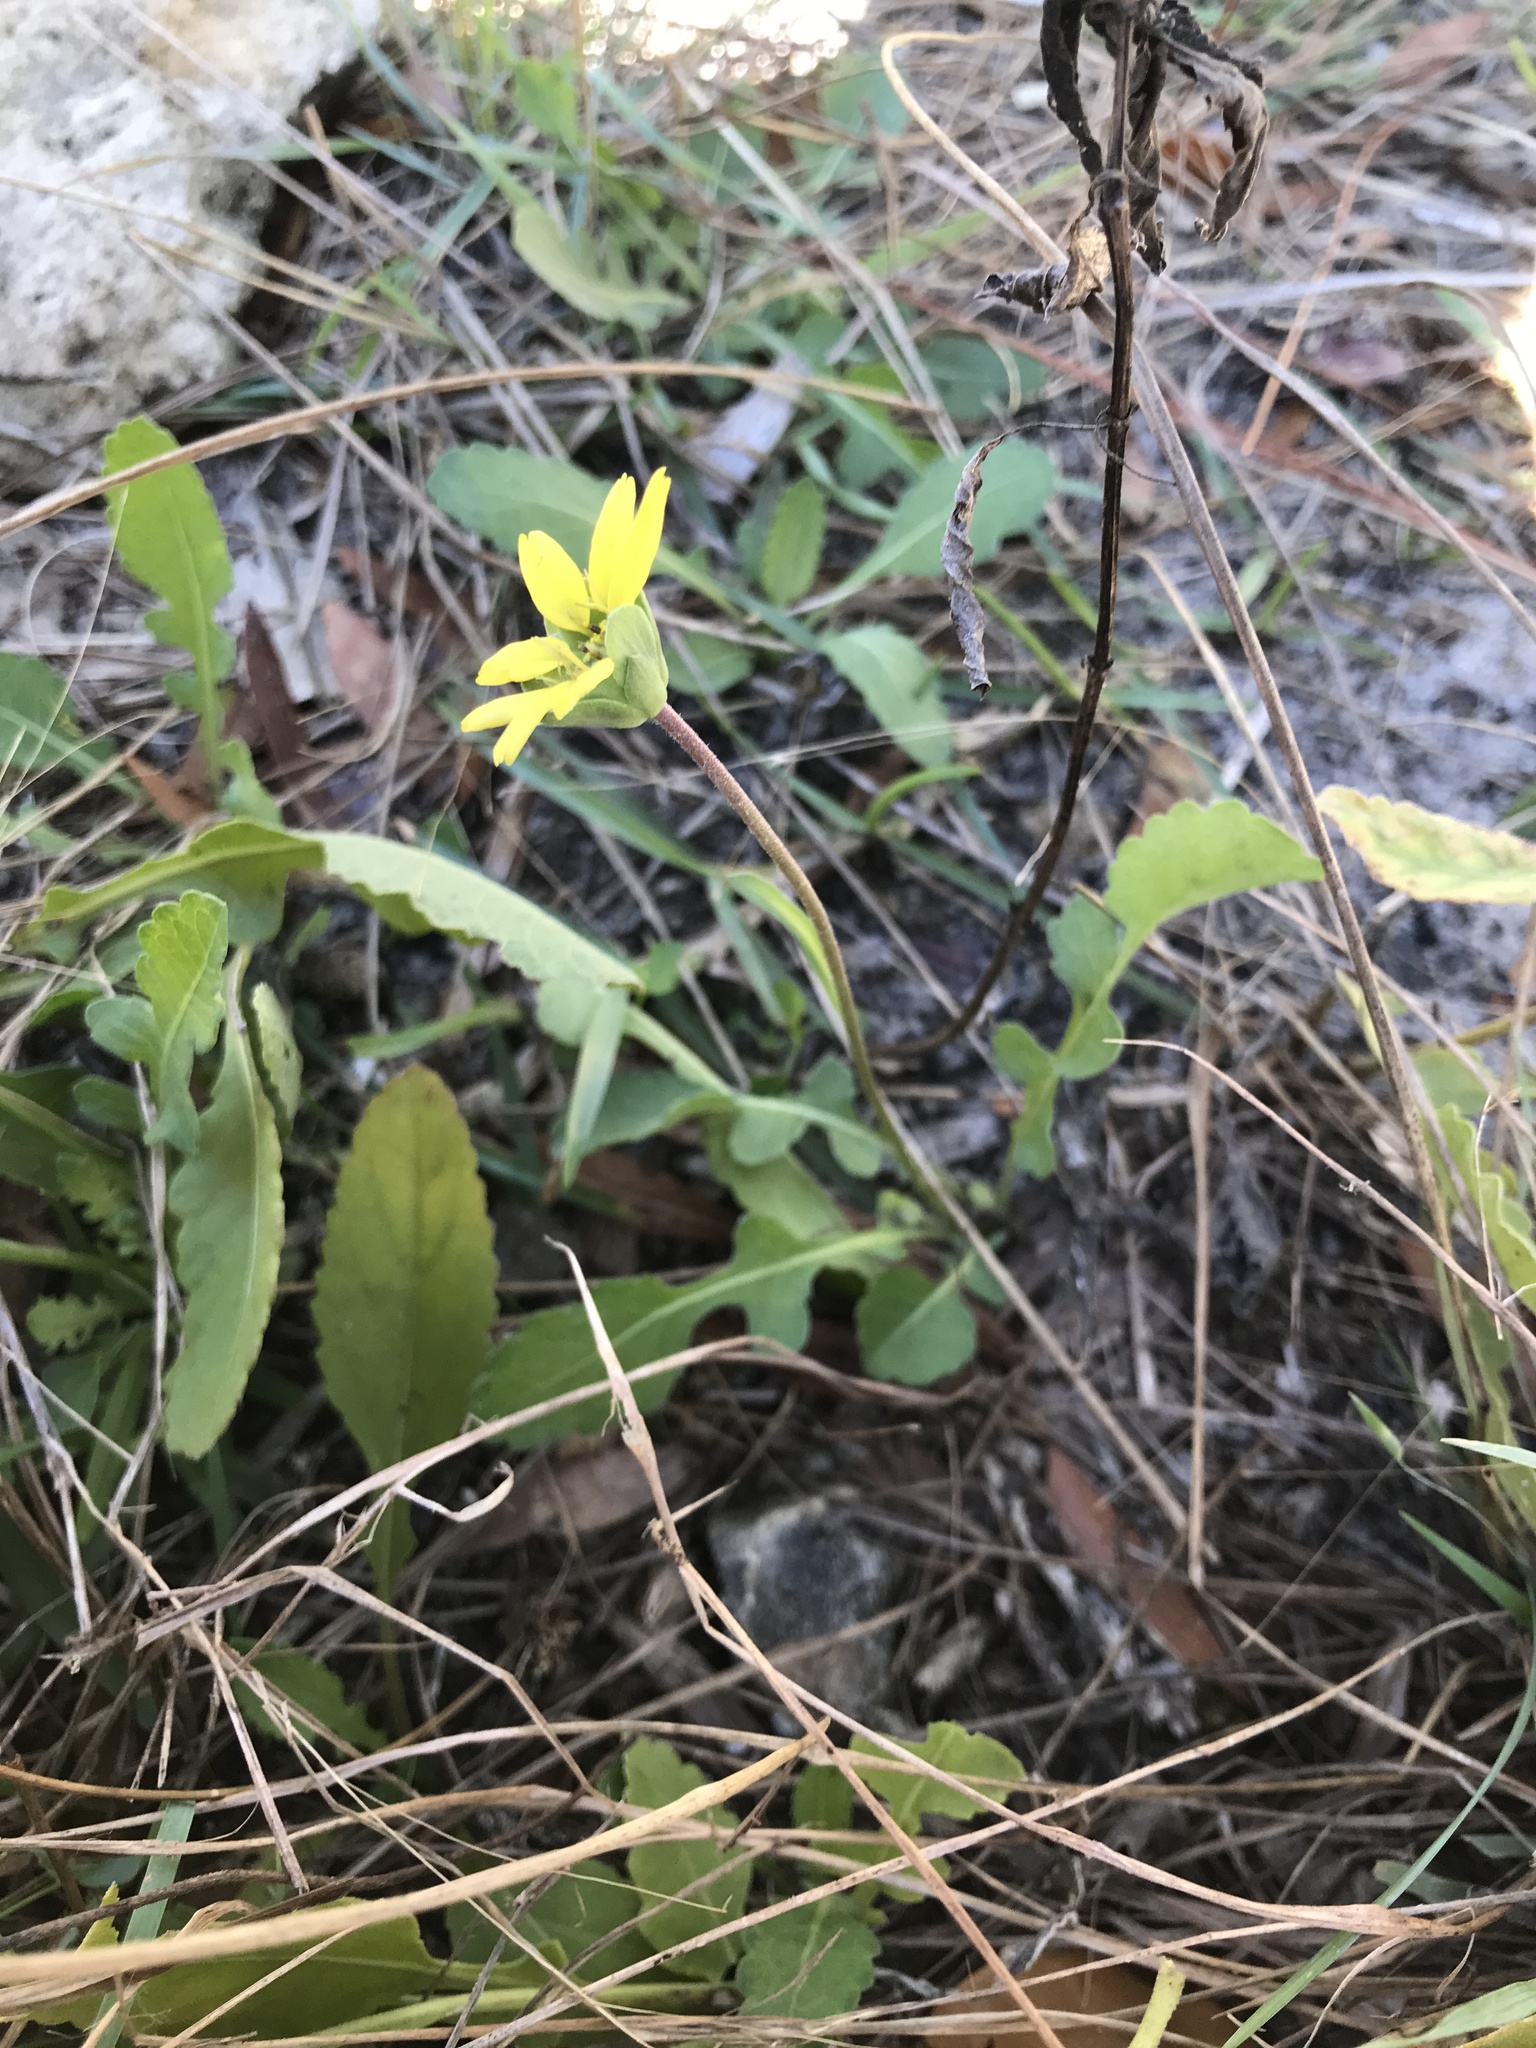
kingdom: Plantae
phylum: Tracheophyta
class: Magnoliopsida
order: Asterales
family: Asteraceae
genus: Berlandiera
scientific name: Berlandiera subacaulis
